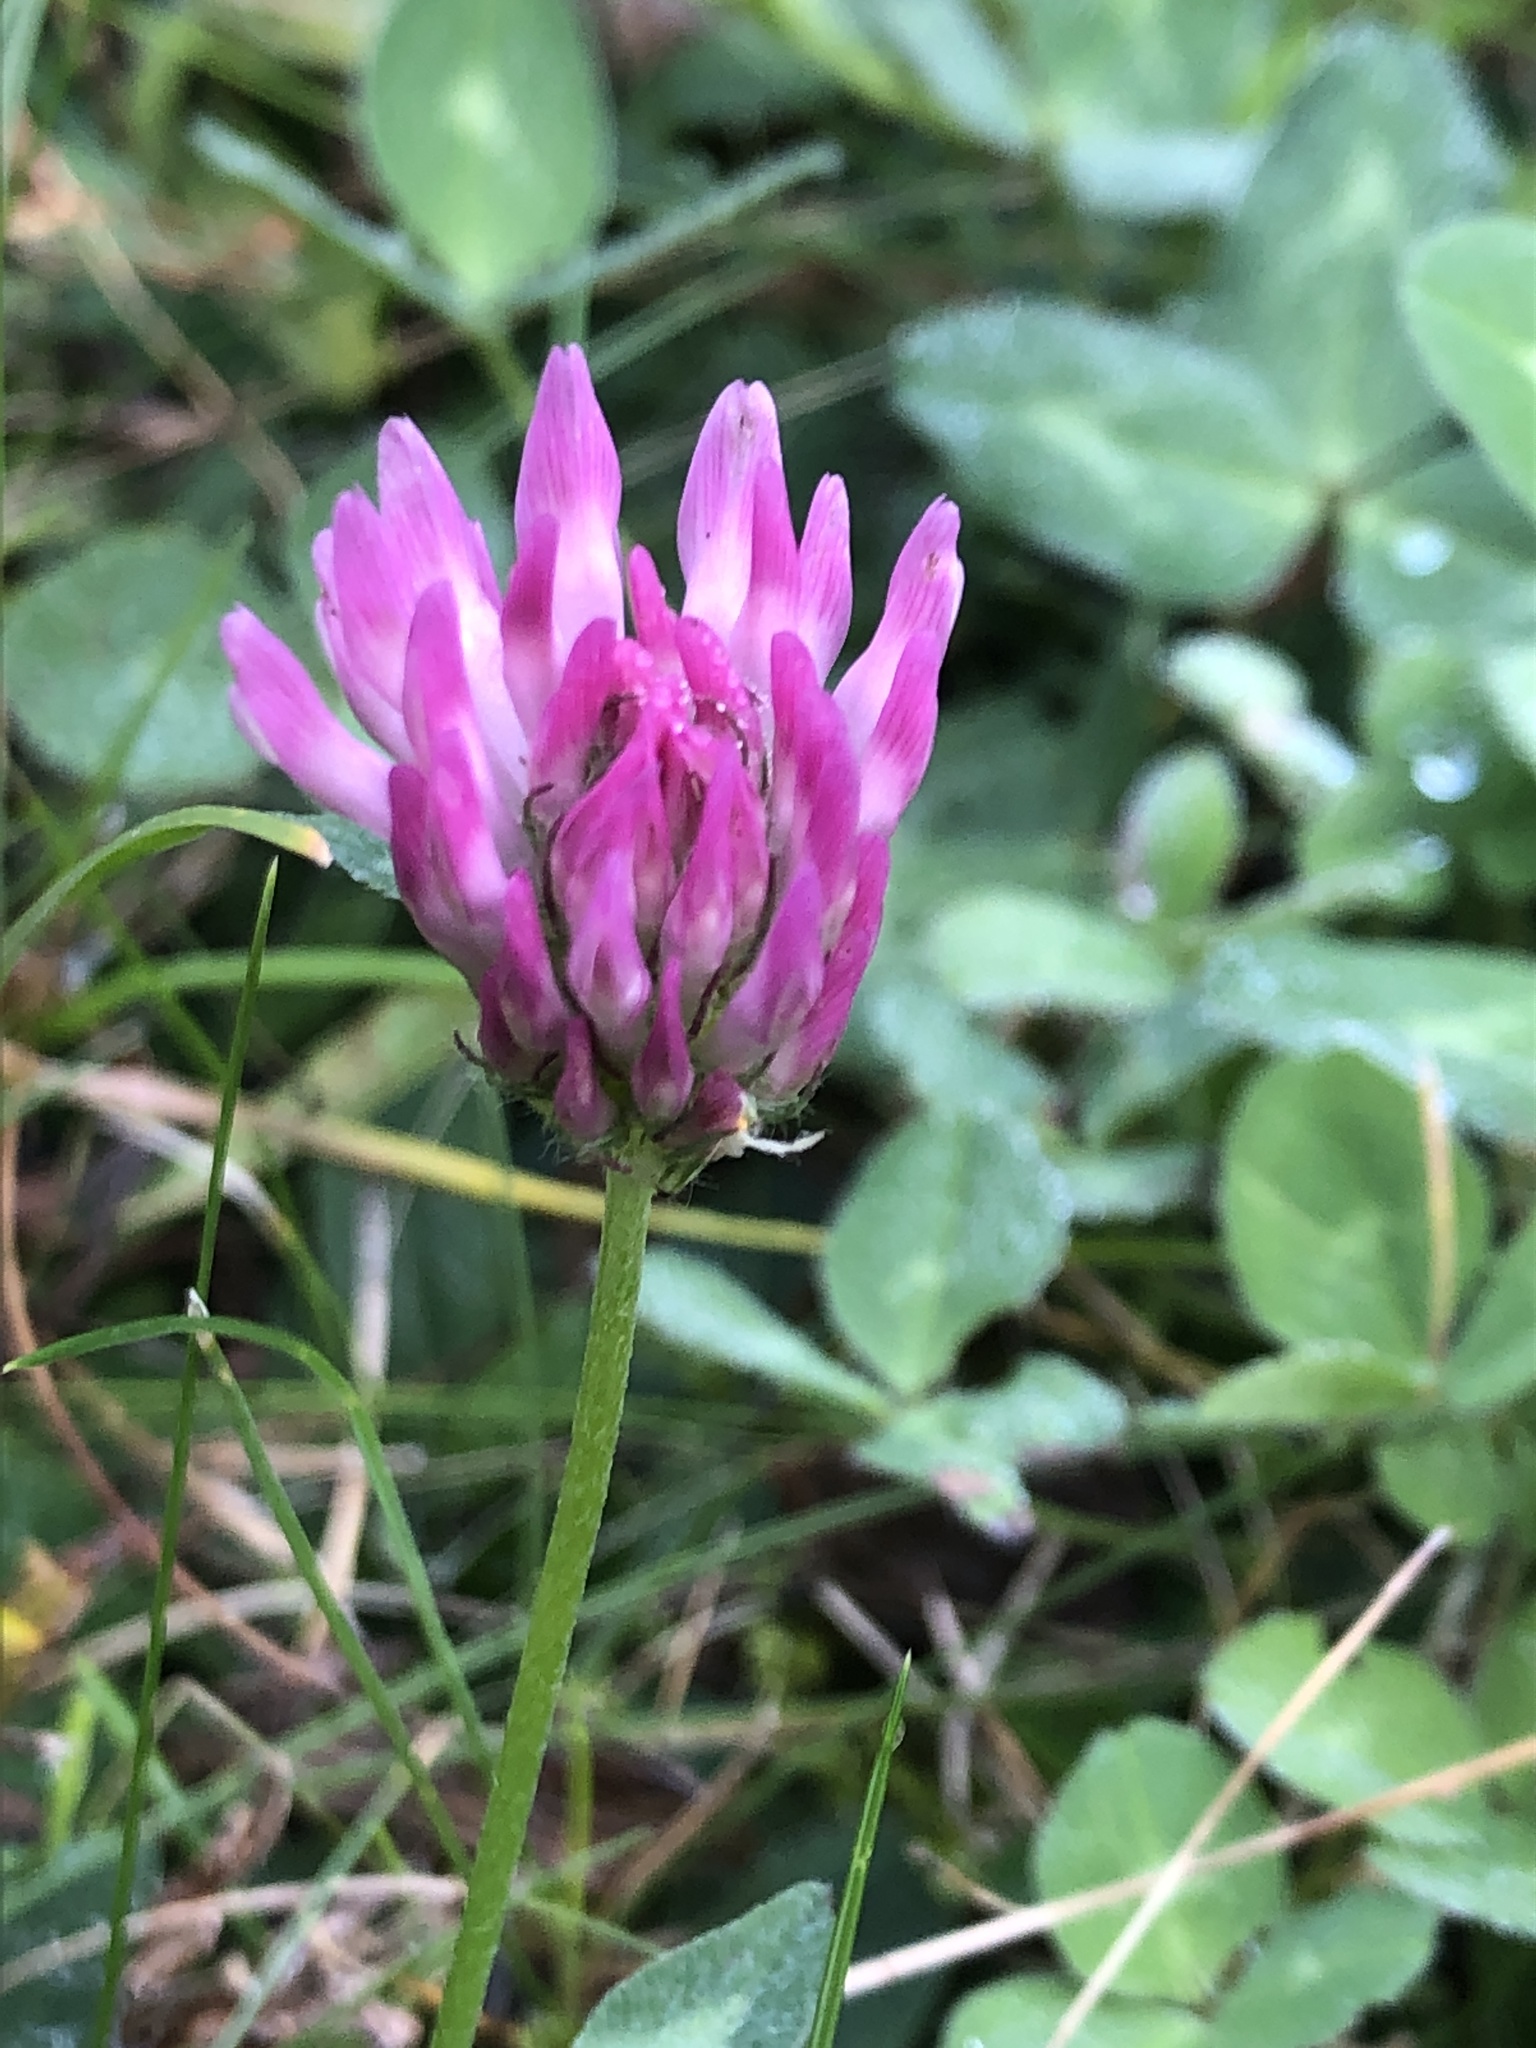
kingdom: Plantae
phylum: Tracheophyta
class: Magnoliopsida
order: Fabales
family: Fabaceae
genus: Trifolium
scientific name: Trifolium pratense
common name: Red clover
